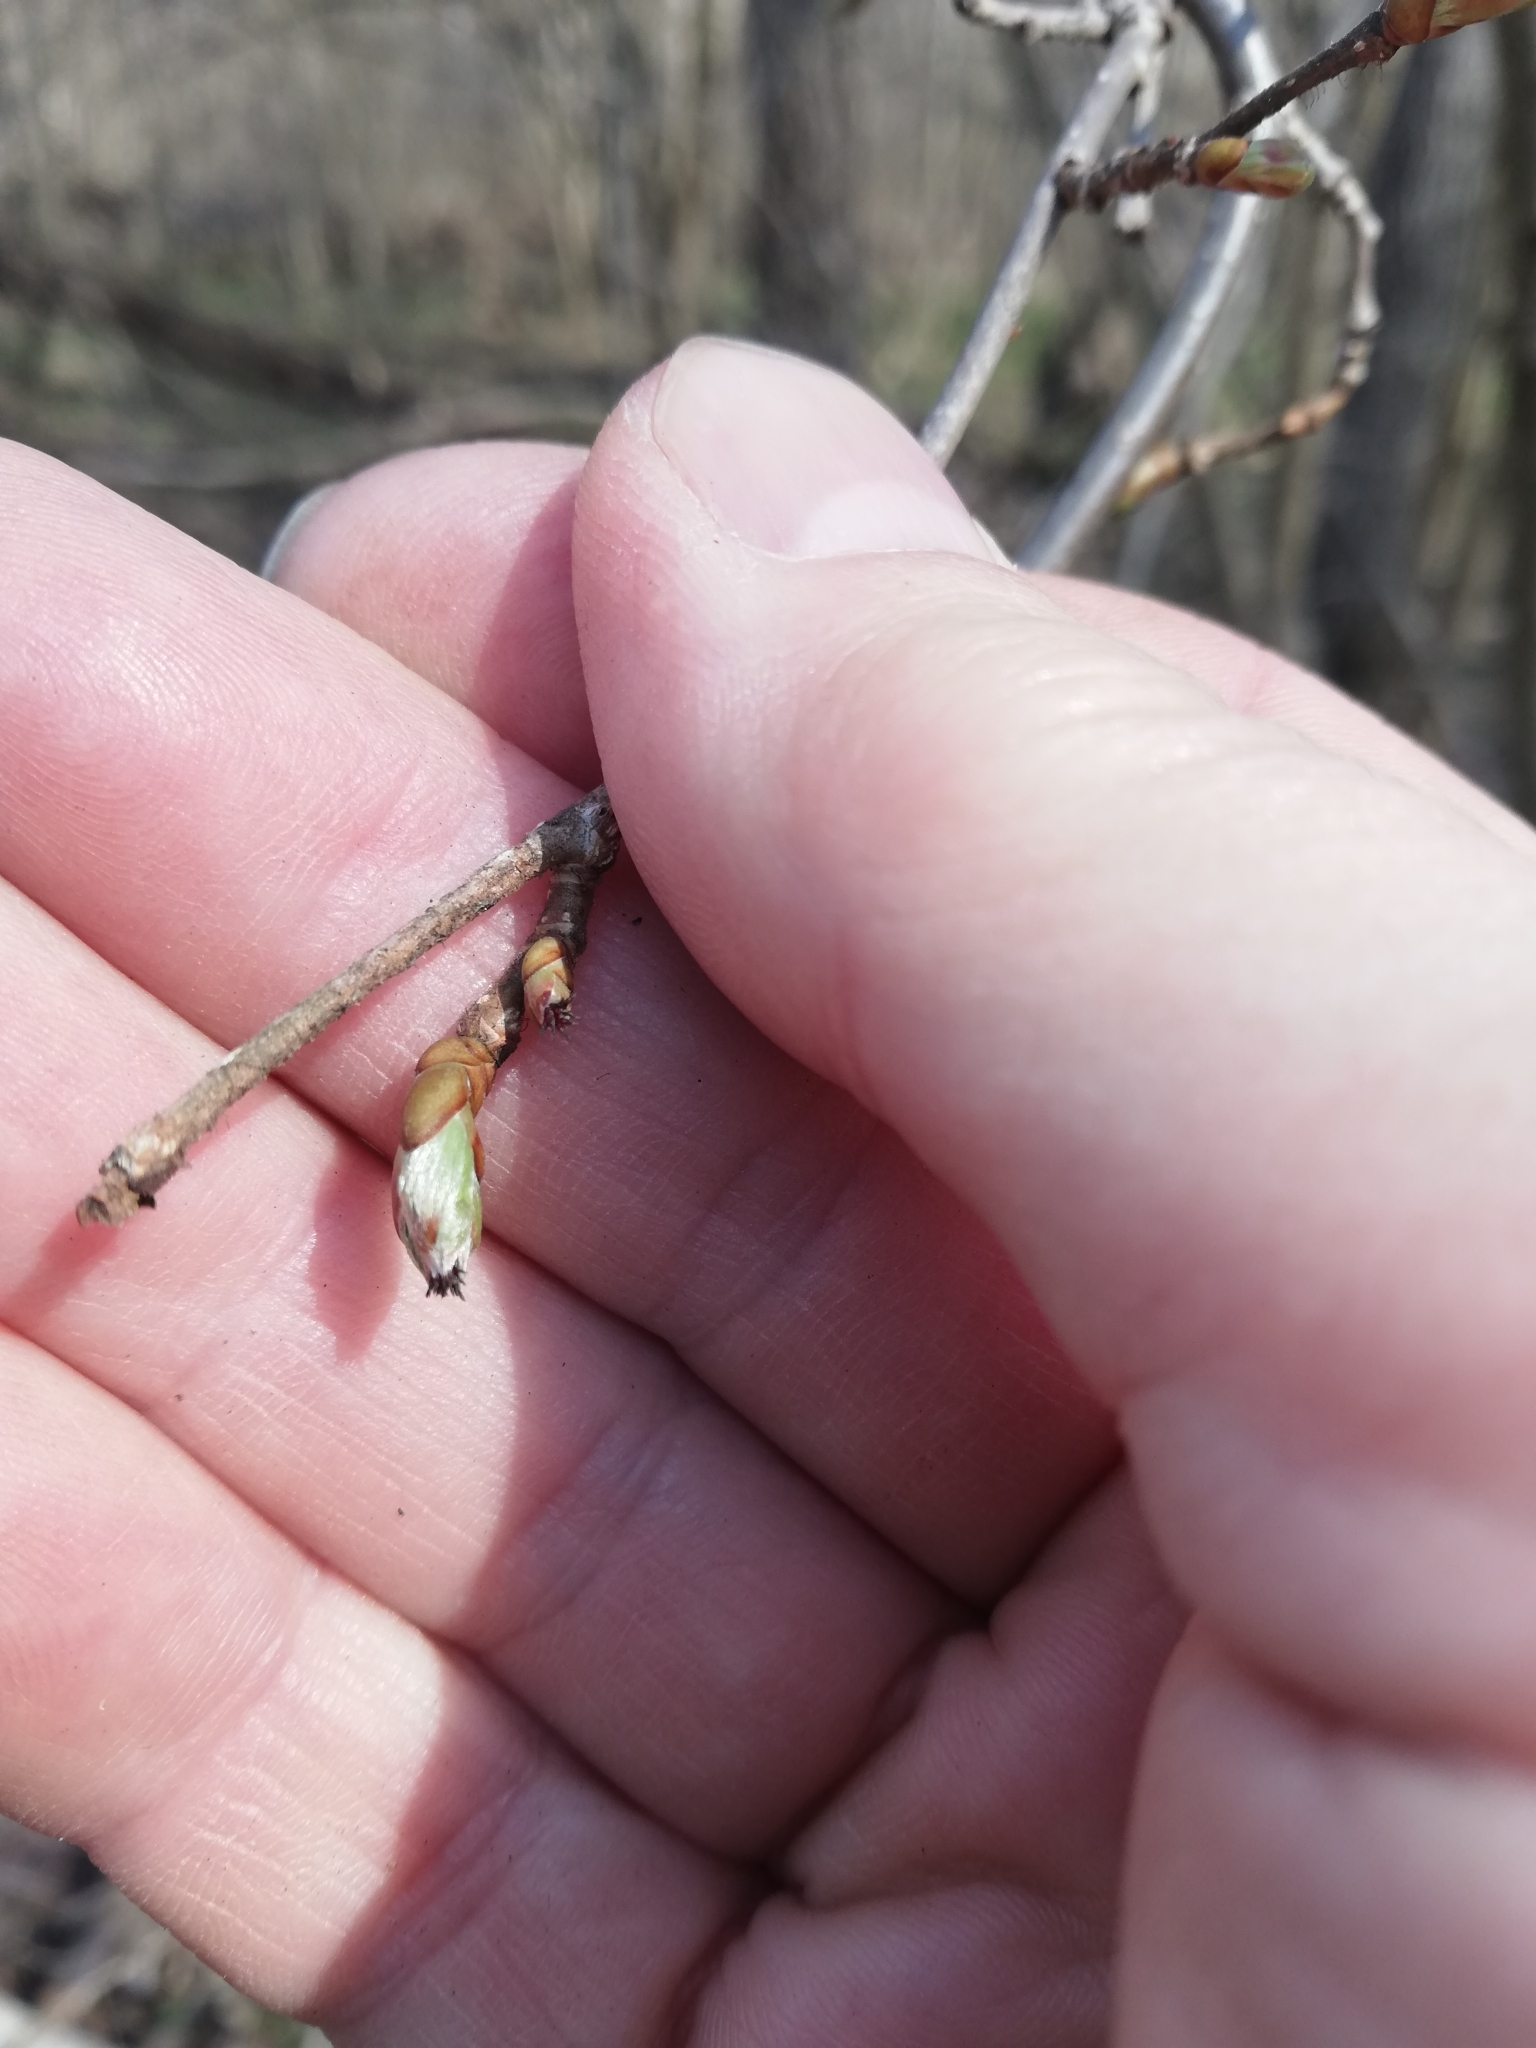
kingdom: Plantae
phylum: Tracheophyta
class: Magnoliopsida
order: Fagales
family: Betulaceae
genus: Corylus
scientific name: Corylus avellana
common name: European hazel
